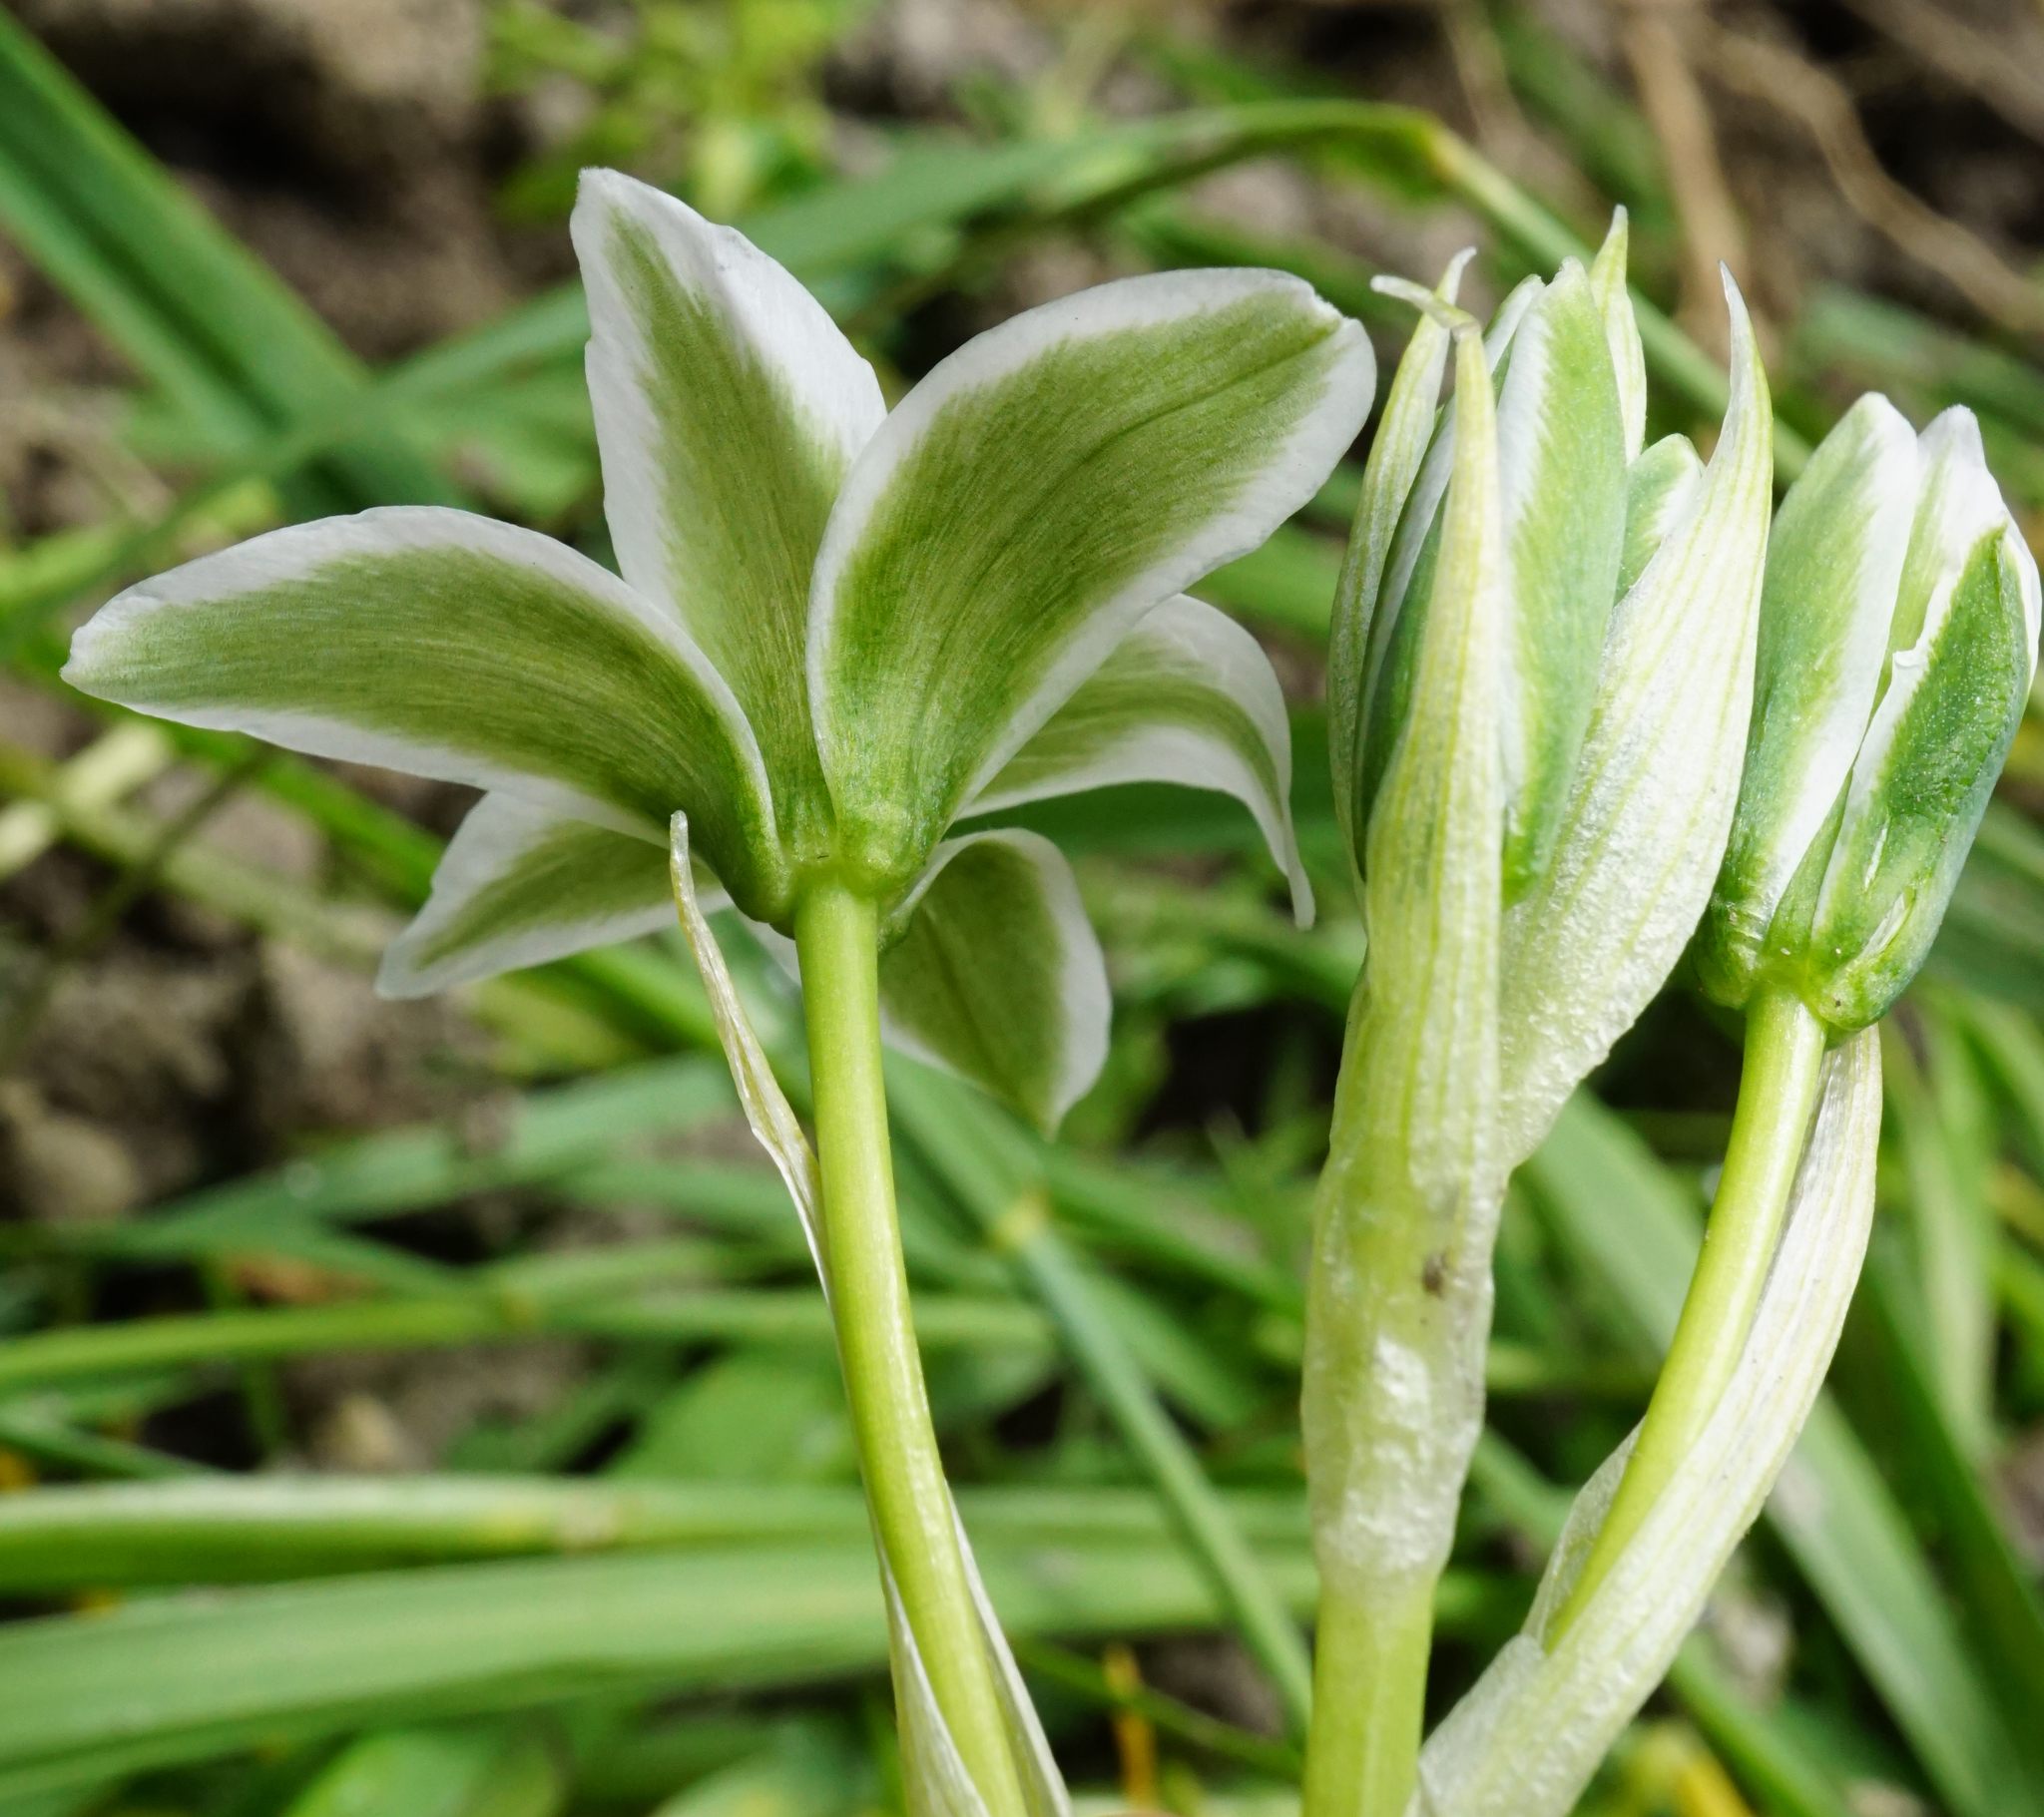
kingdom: Plantae
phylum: Tracheophyta
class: Liliopsida
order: Asparagales
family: Asparagaceae
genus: Ornithogalum
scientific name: Ornithogalum orthophyllum
